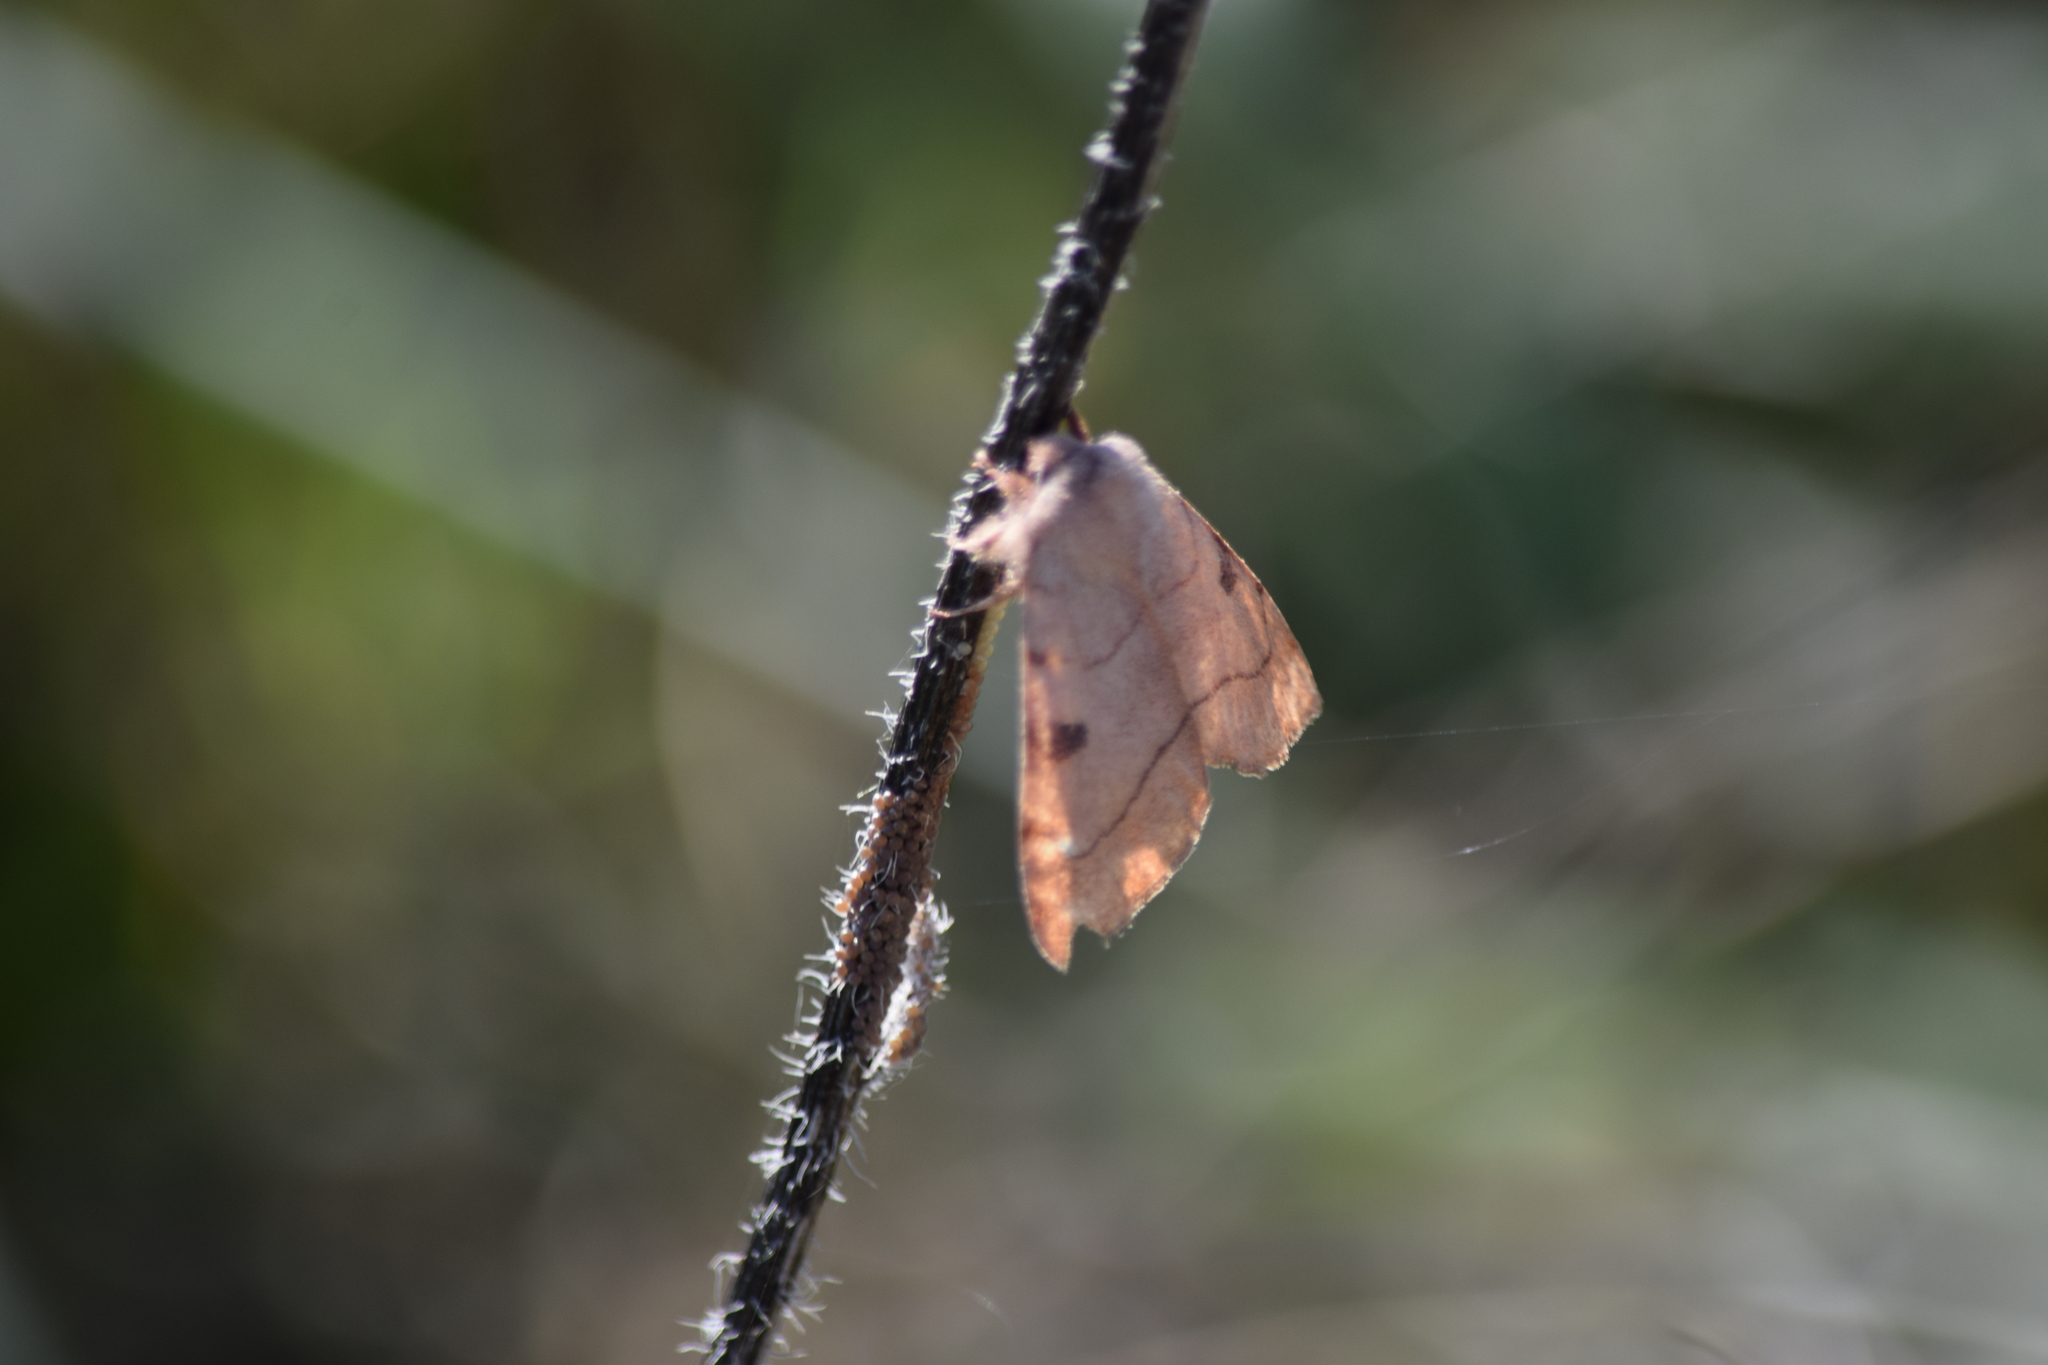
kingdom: Animalia
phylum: Arthropoda
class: Insecta
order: Lepidoptera
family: Noctuidae
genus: Choephora
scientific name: Choephora fungorum
